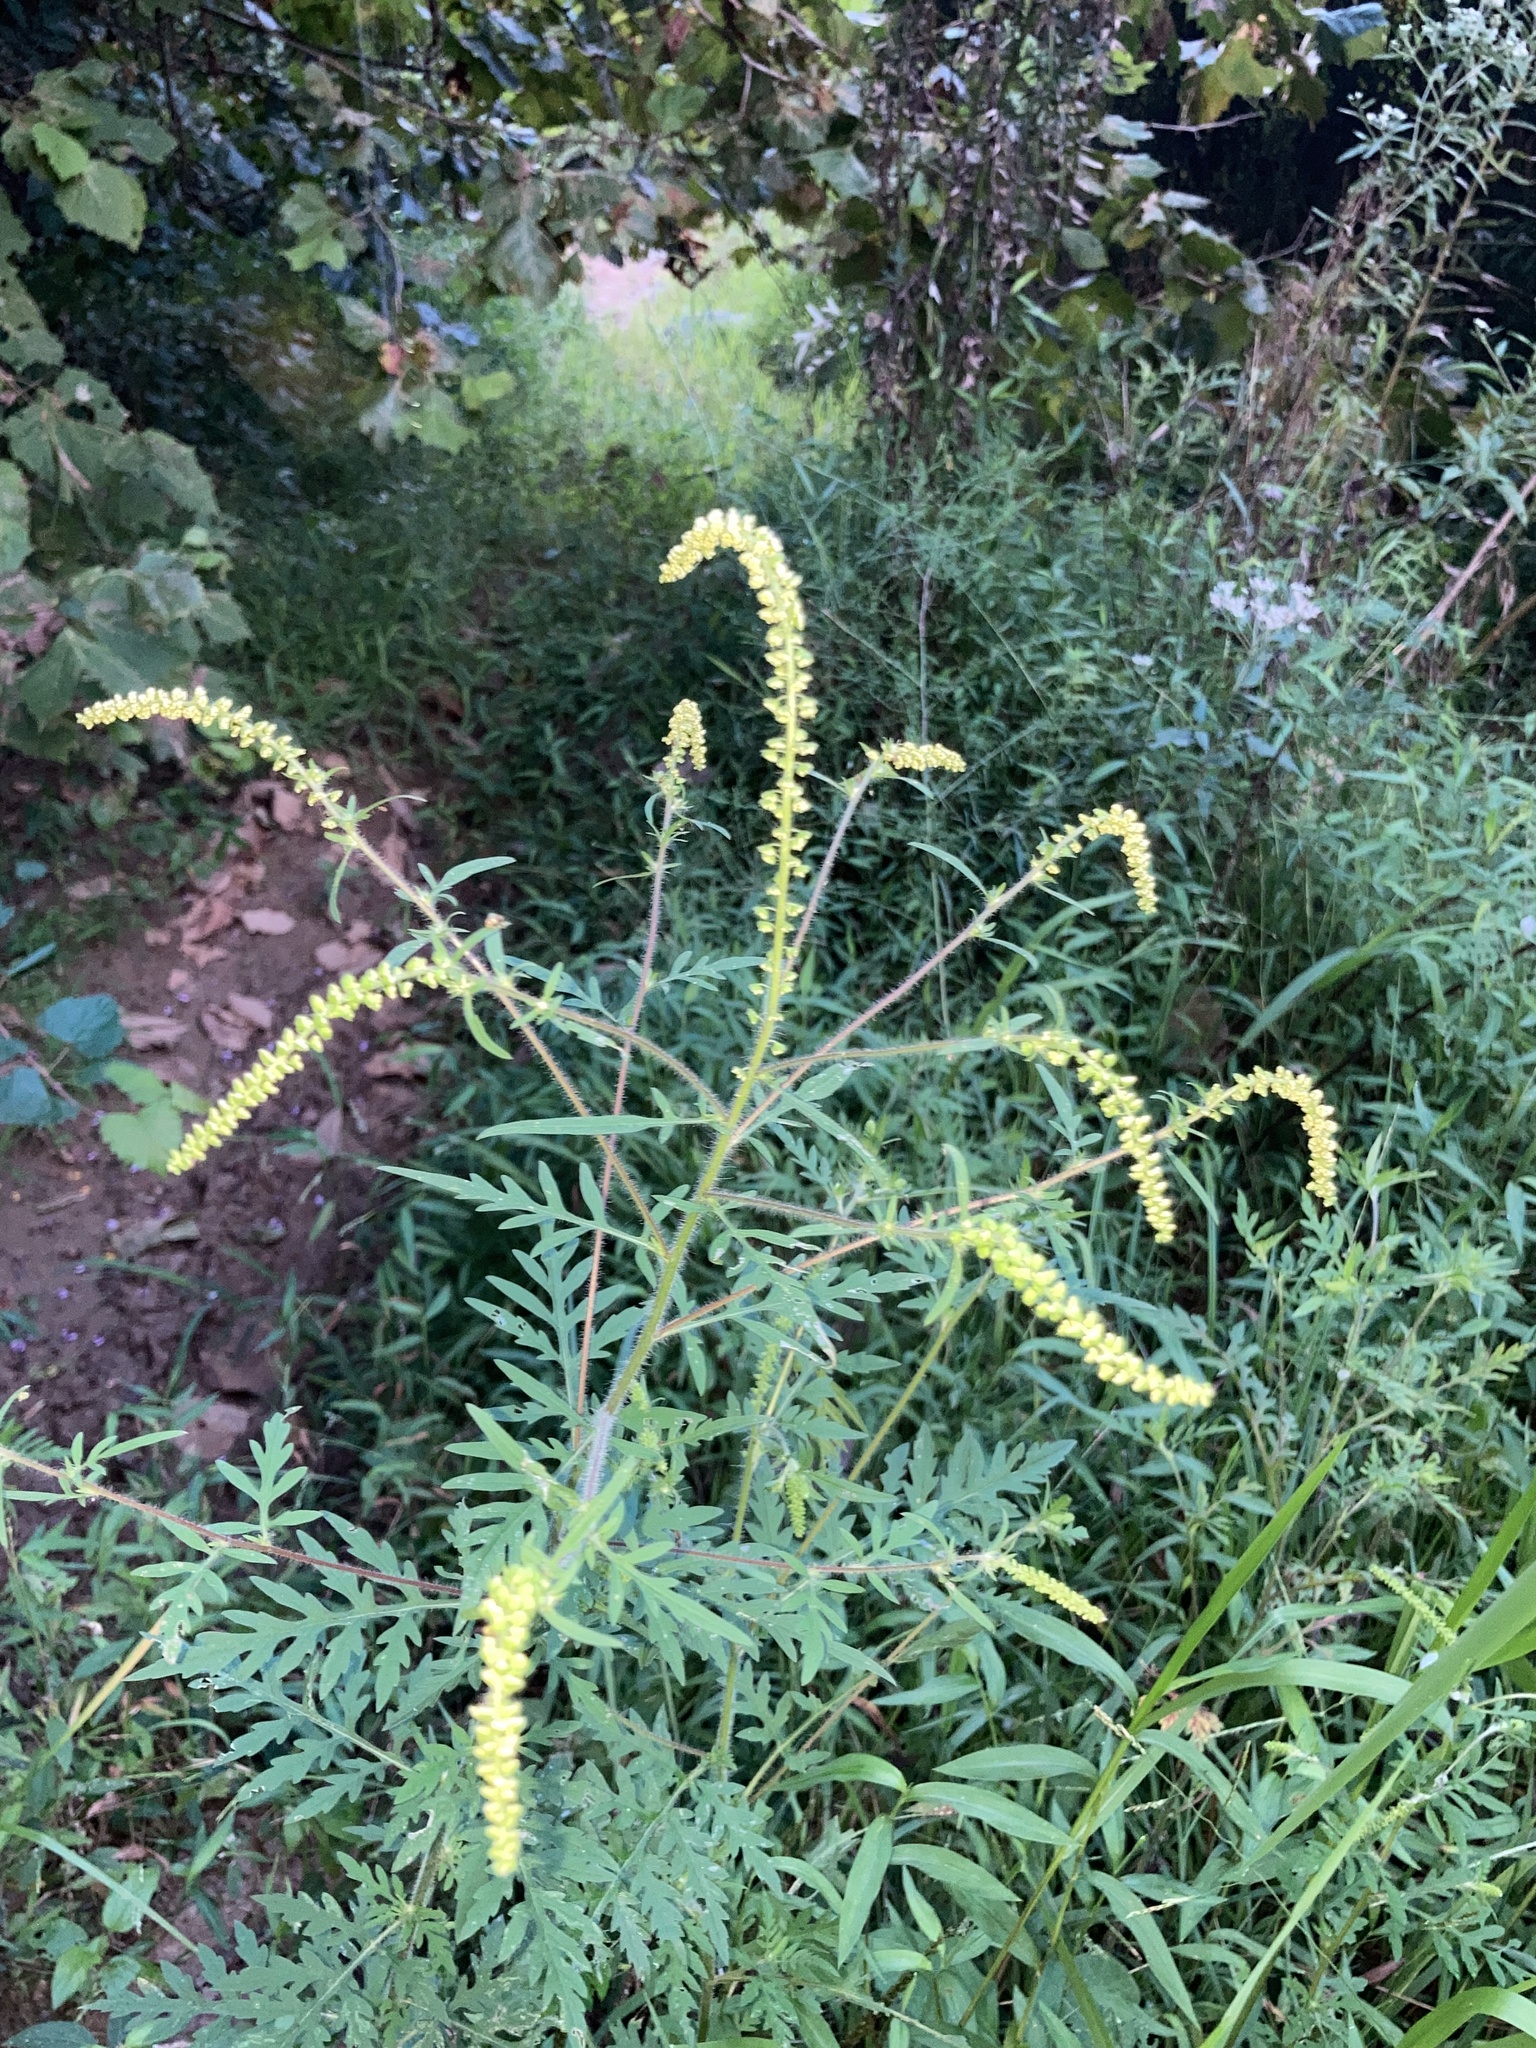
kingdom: Plantae
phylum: Tracheophyta
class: Magnoliopsida
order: Asterales
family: Asteraceae
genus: Ambrosia
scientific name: Ambrosia artemisiifolia
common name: Annual ragweed
